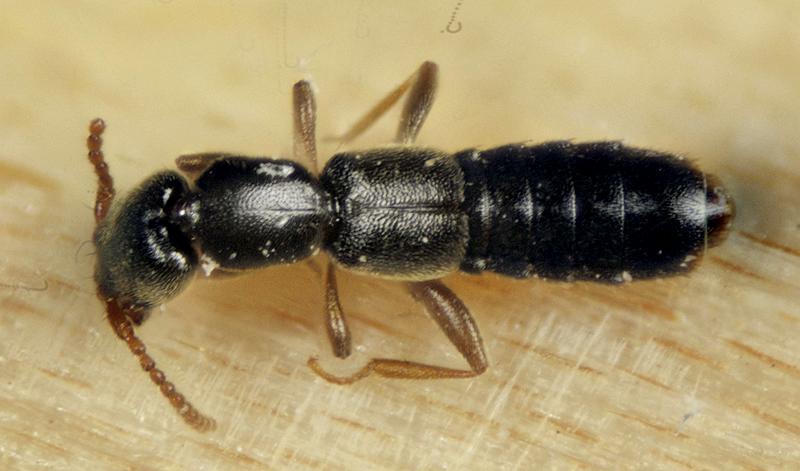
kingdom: Animalia
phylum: Arthropoda
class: Insecta
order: Coleoptera
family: Staphylinidae
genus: Orus
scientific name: Orus dentiger
